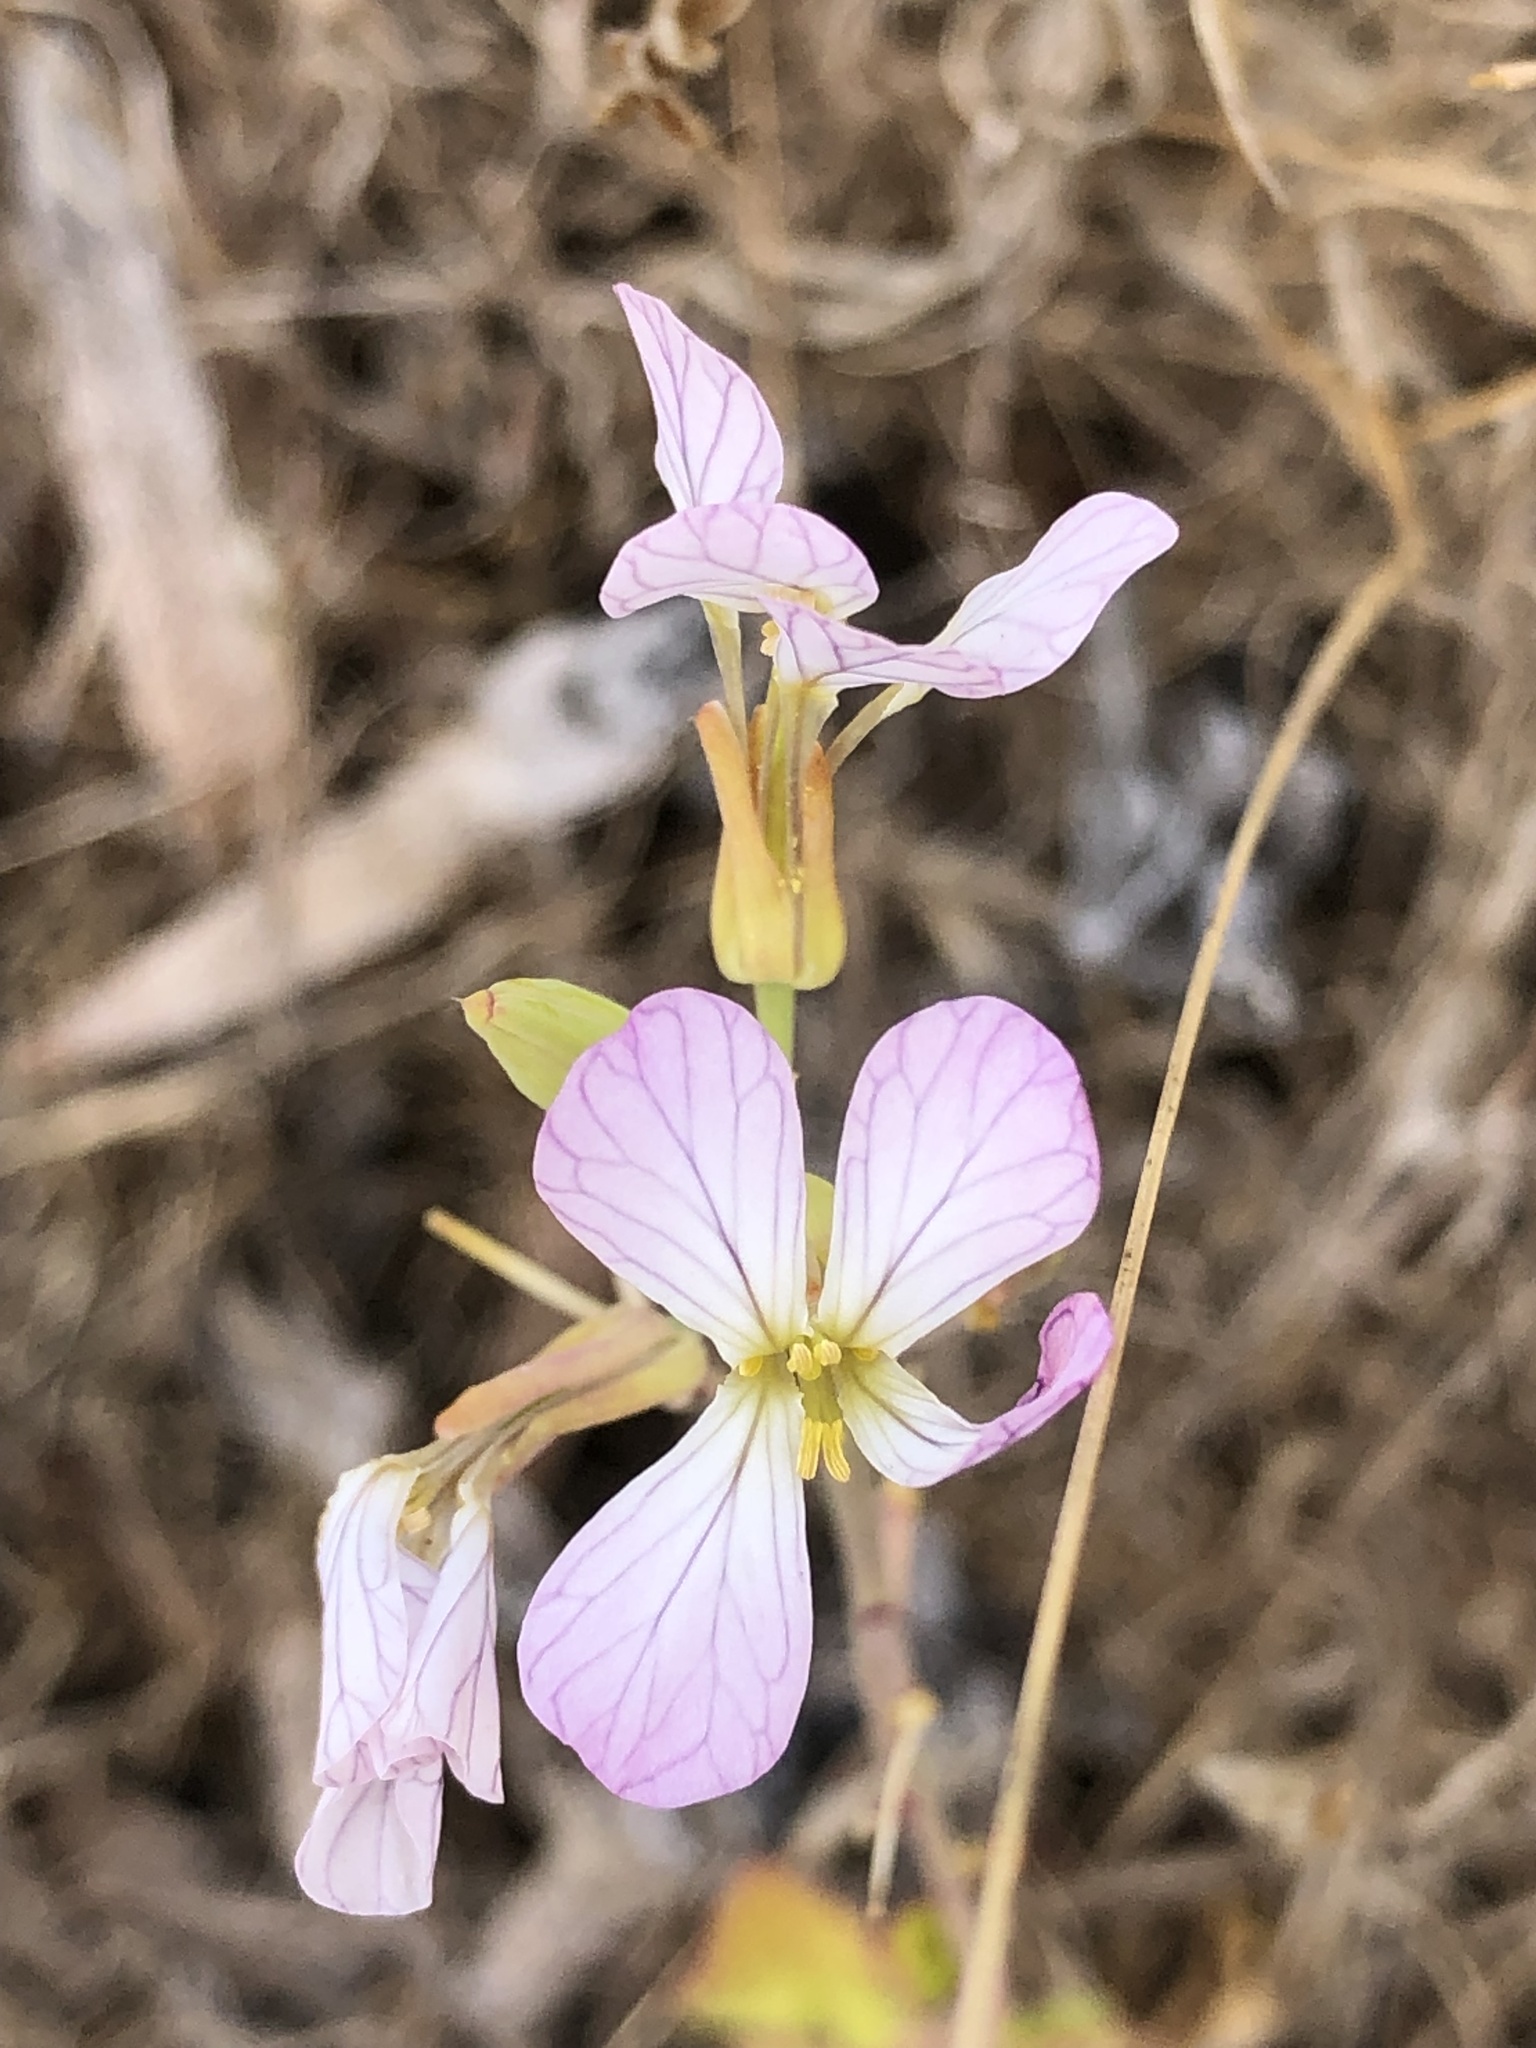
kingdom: Plantae
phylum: Tracheophyta
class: Magnoliopsida
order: Brassicales
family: Brassicaceae
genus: Raphanus
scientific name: Raphanus sativus
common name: Cultivated radish
